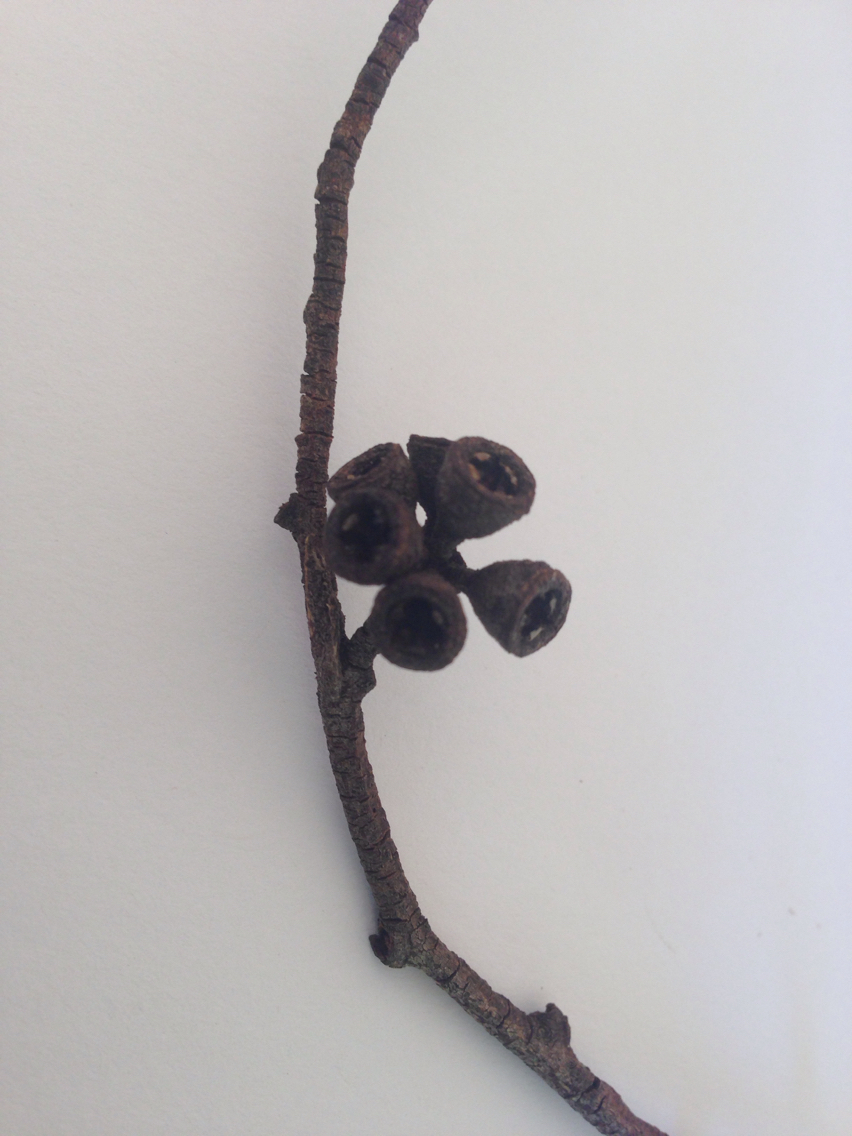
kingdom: Plantae
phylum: Tracheophyta
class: Magnoliopsida
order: Myrtales
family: Myrtaceae
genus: Eucalyptus
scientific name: Eucalyptus ovata
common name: Black-gum
